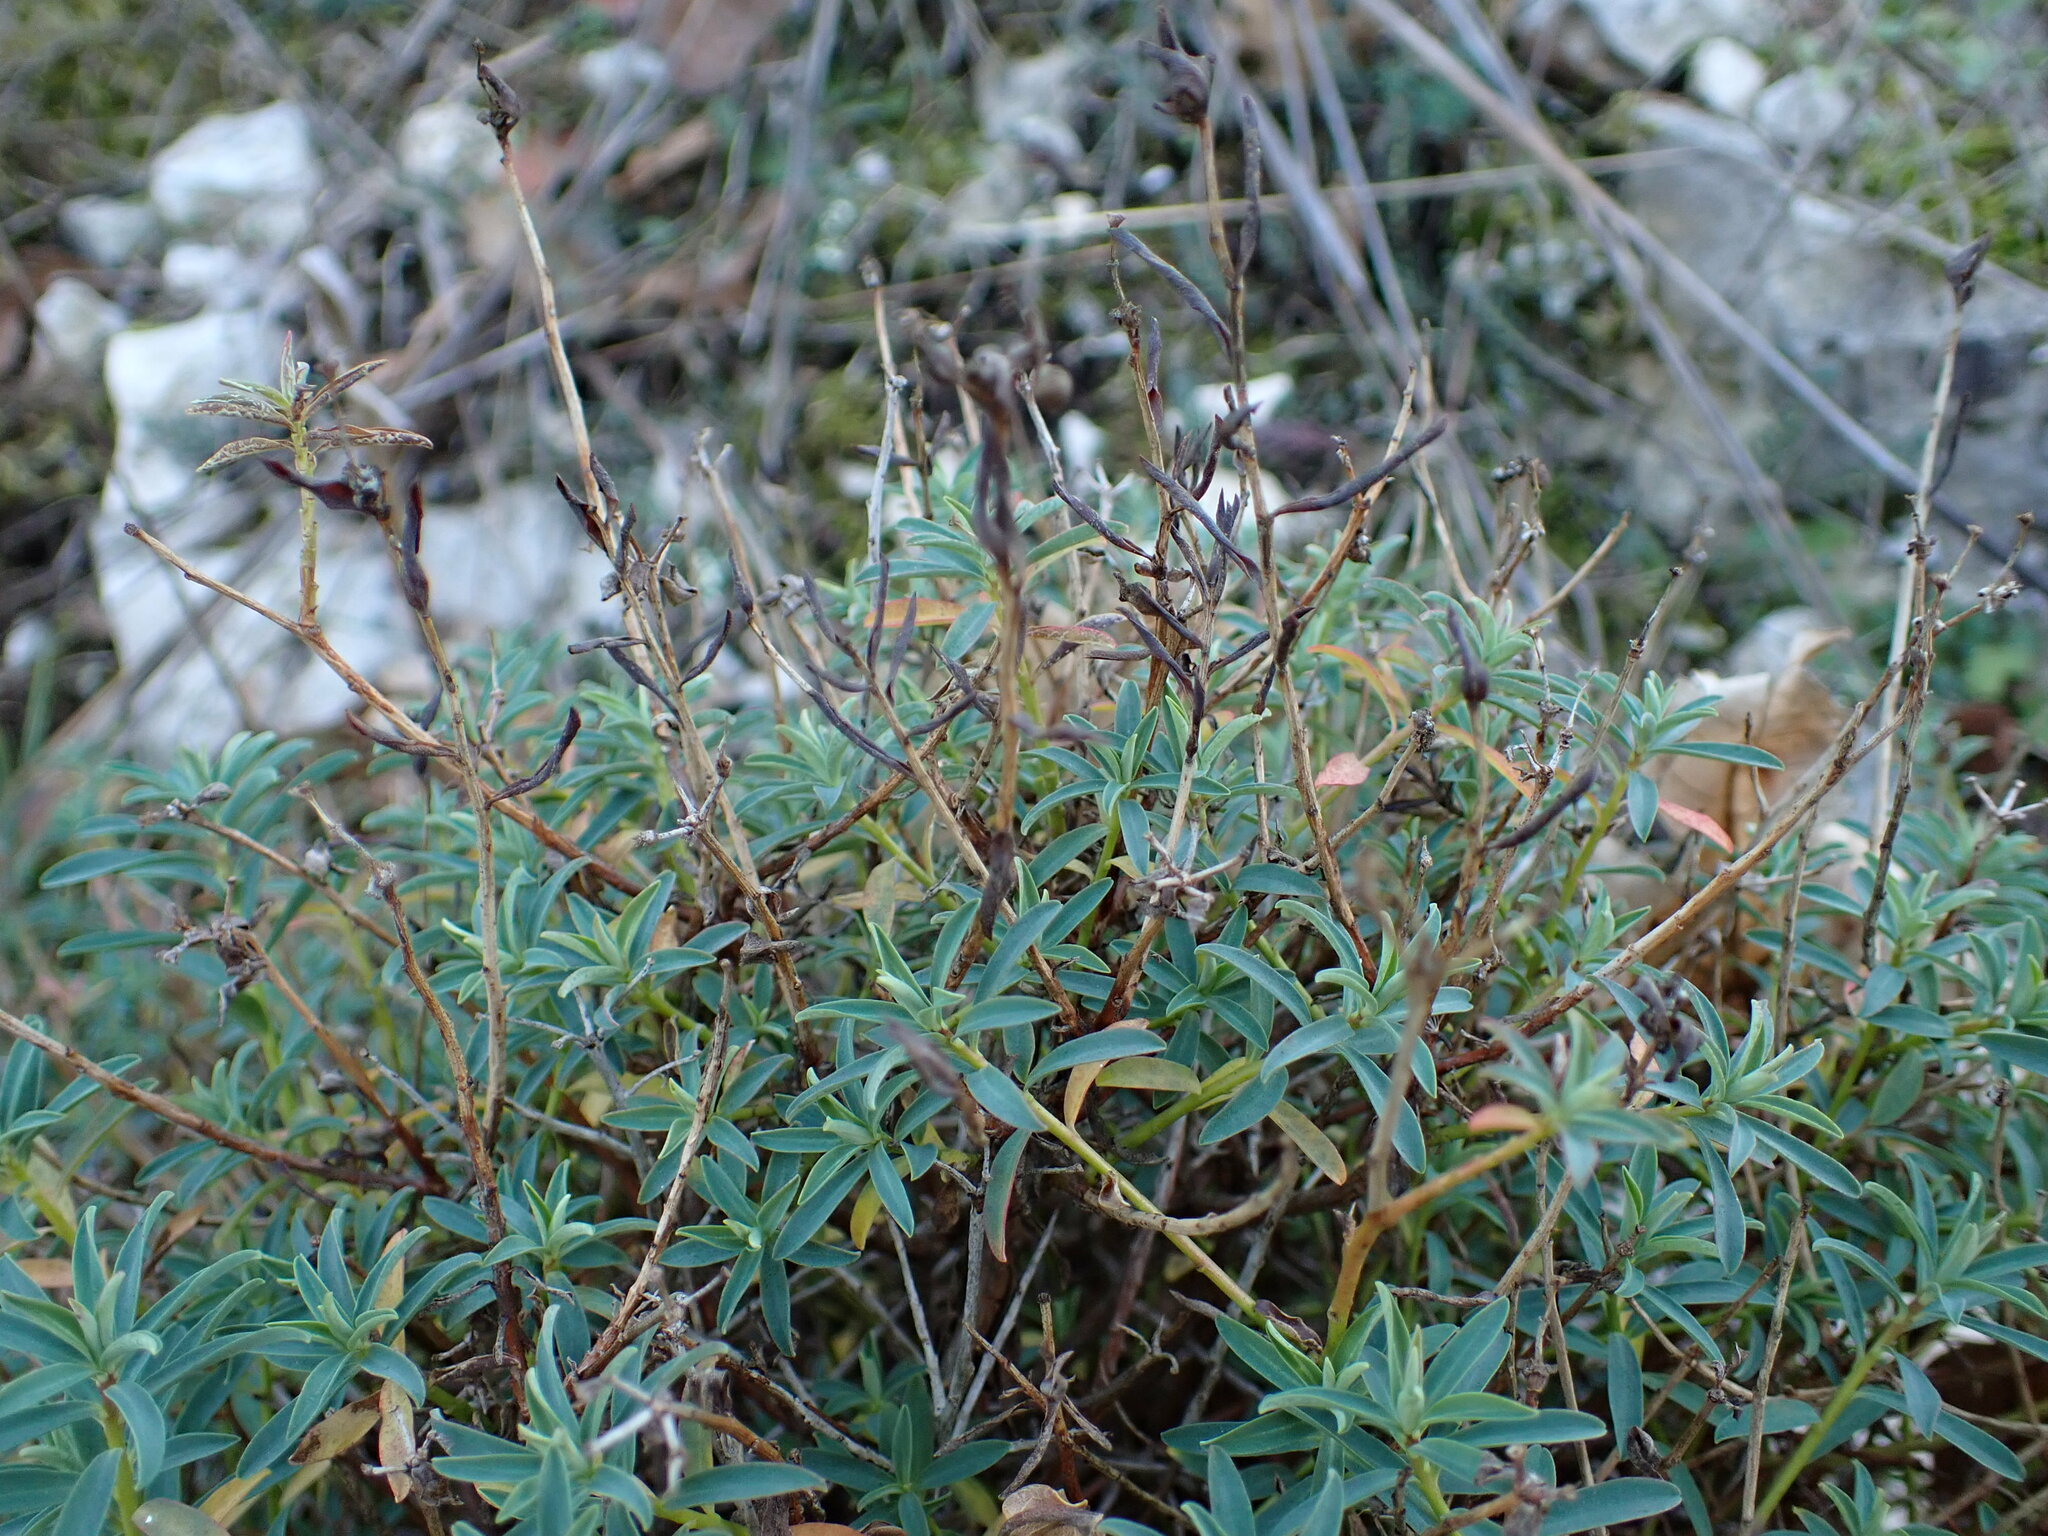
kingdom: Plantae
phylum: Tracheophyta
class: Magnoliopsida
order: Malpighiales
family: Euphorbiaceae
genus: Euphorbia
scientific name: Euphorbia spinosa
